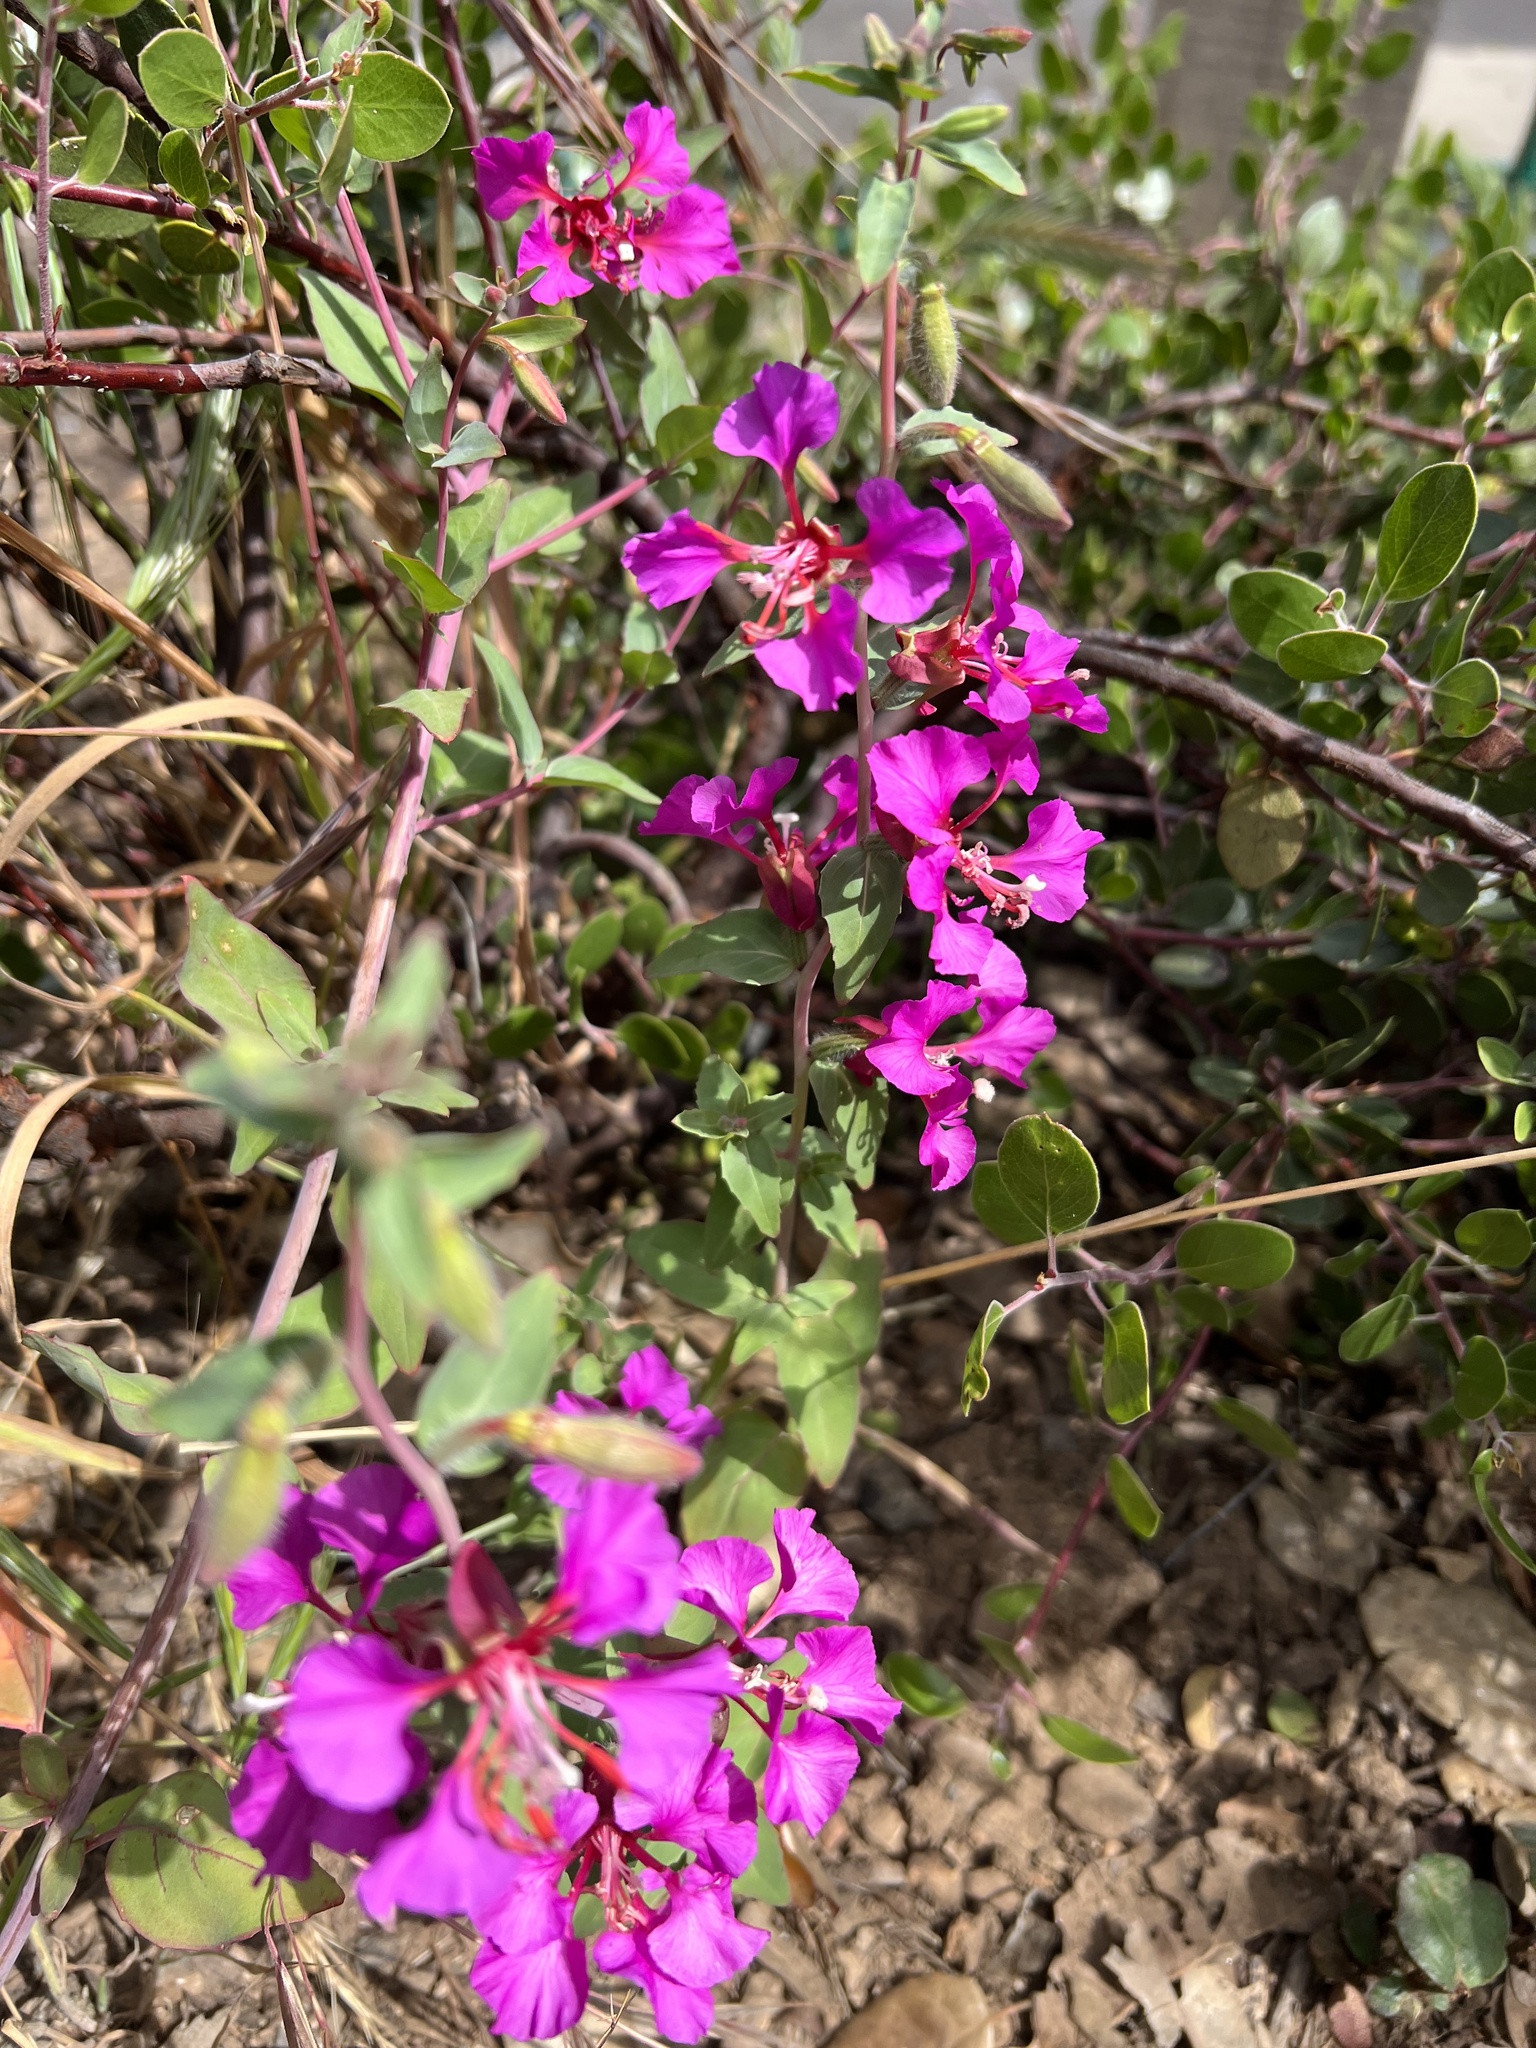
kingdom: Plantae
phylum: Tracheophyta
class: Magnoliopsida
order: Myrtales
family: Onagraceae
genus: Clarkia
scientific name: Clarkia unguiculata
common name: Clarkia
